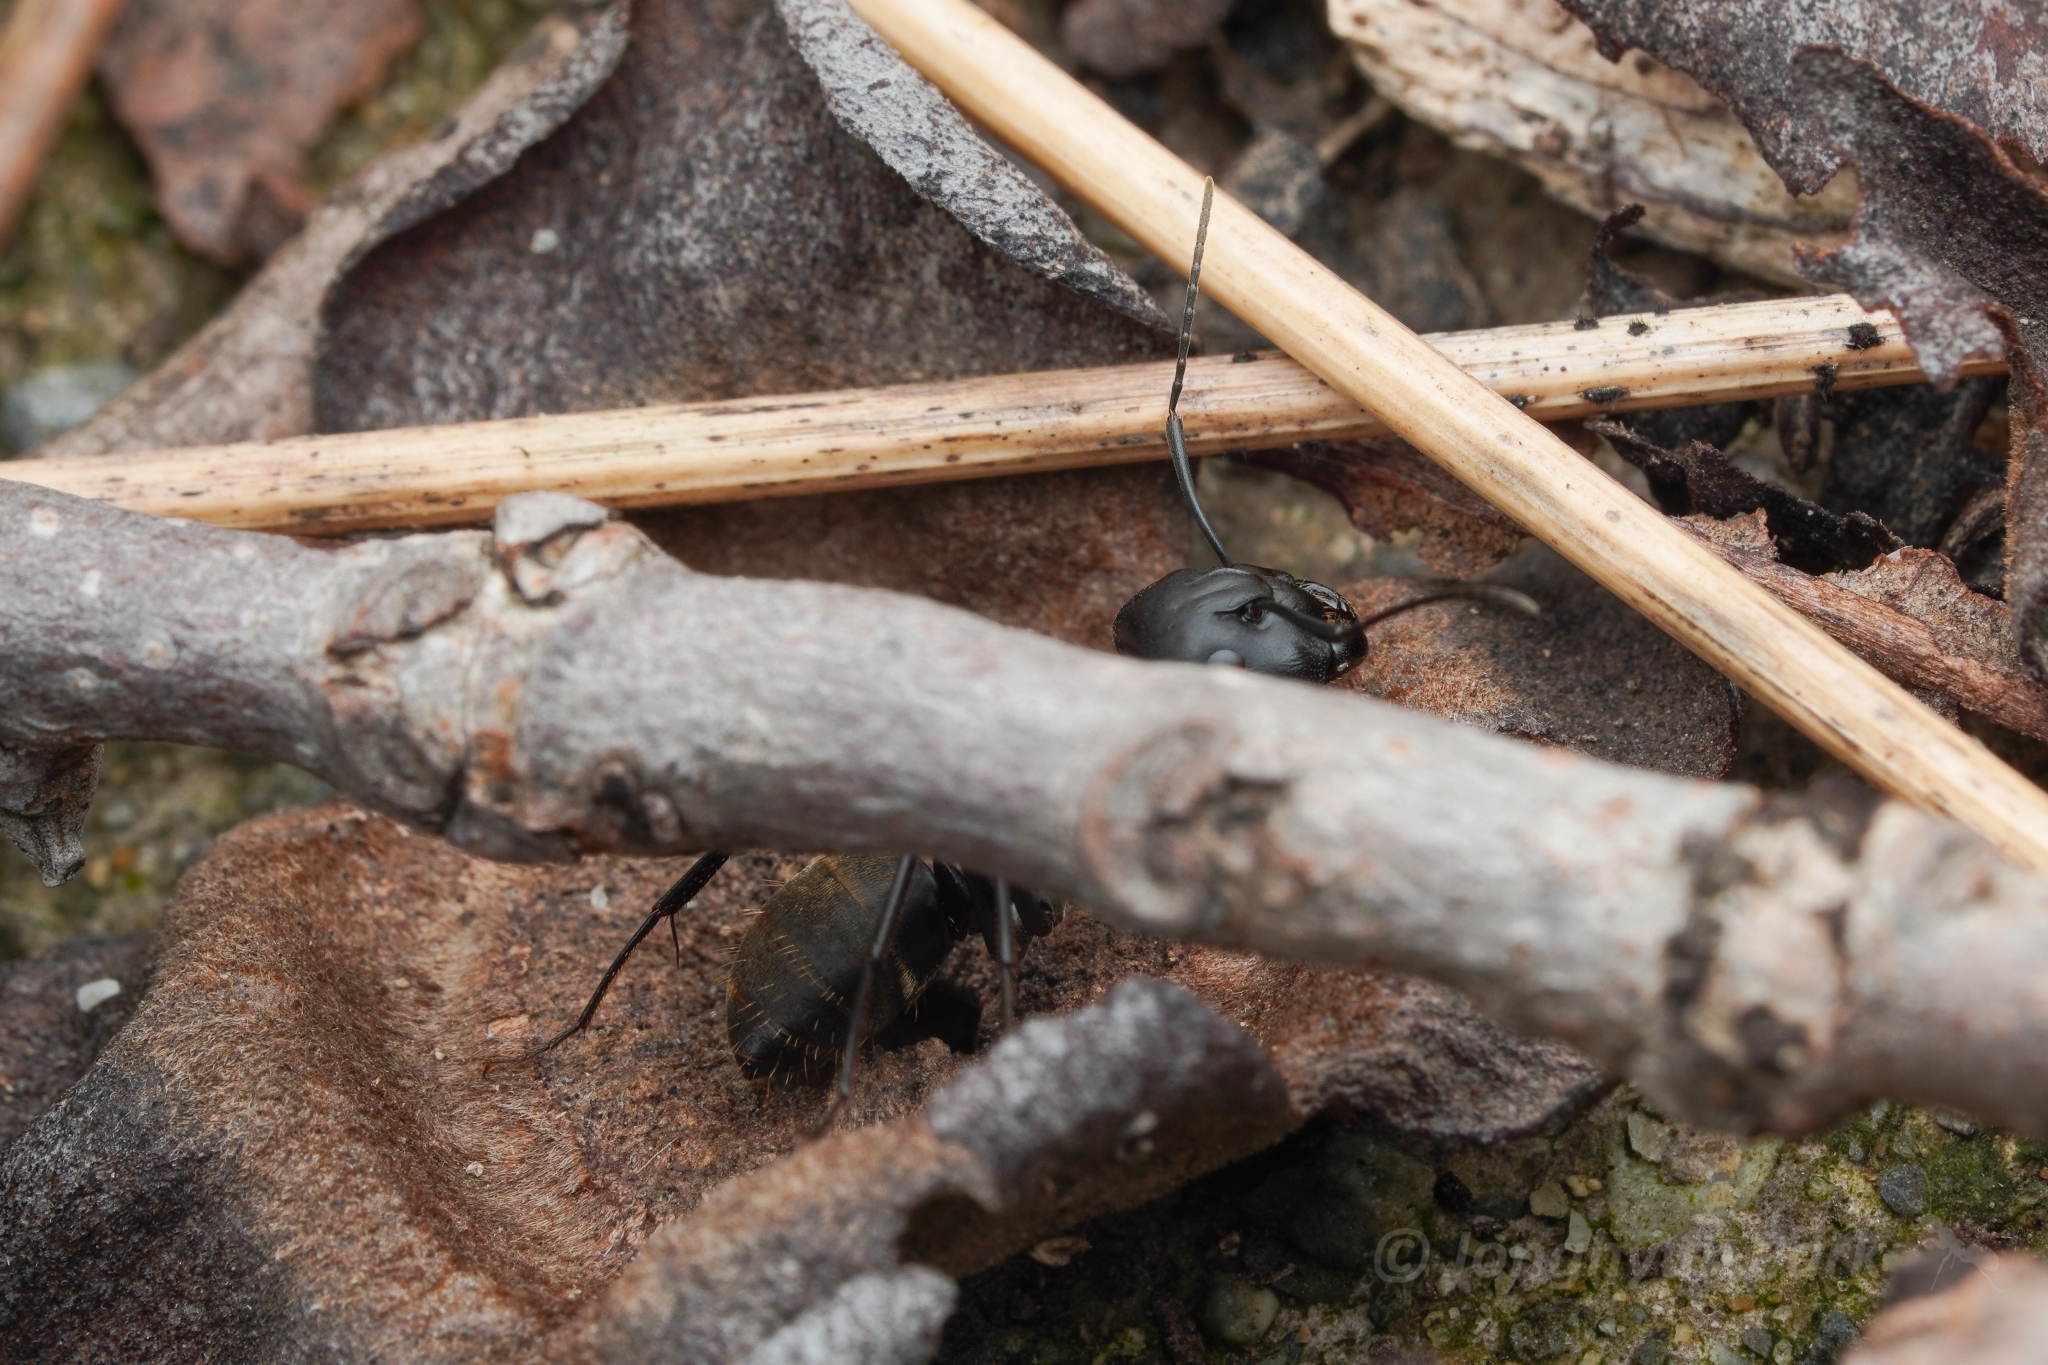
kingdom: Animalia
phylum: Arthropoda
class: Insecta
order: Hymenoptera
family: Formicidae
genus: Camponotus
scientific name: Camponotus japonicus
